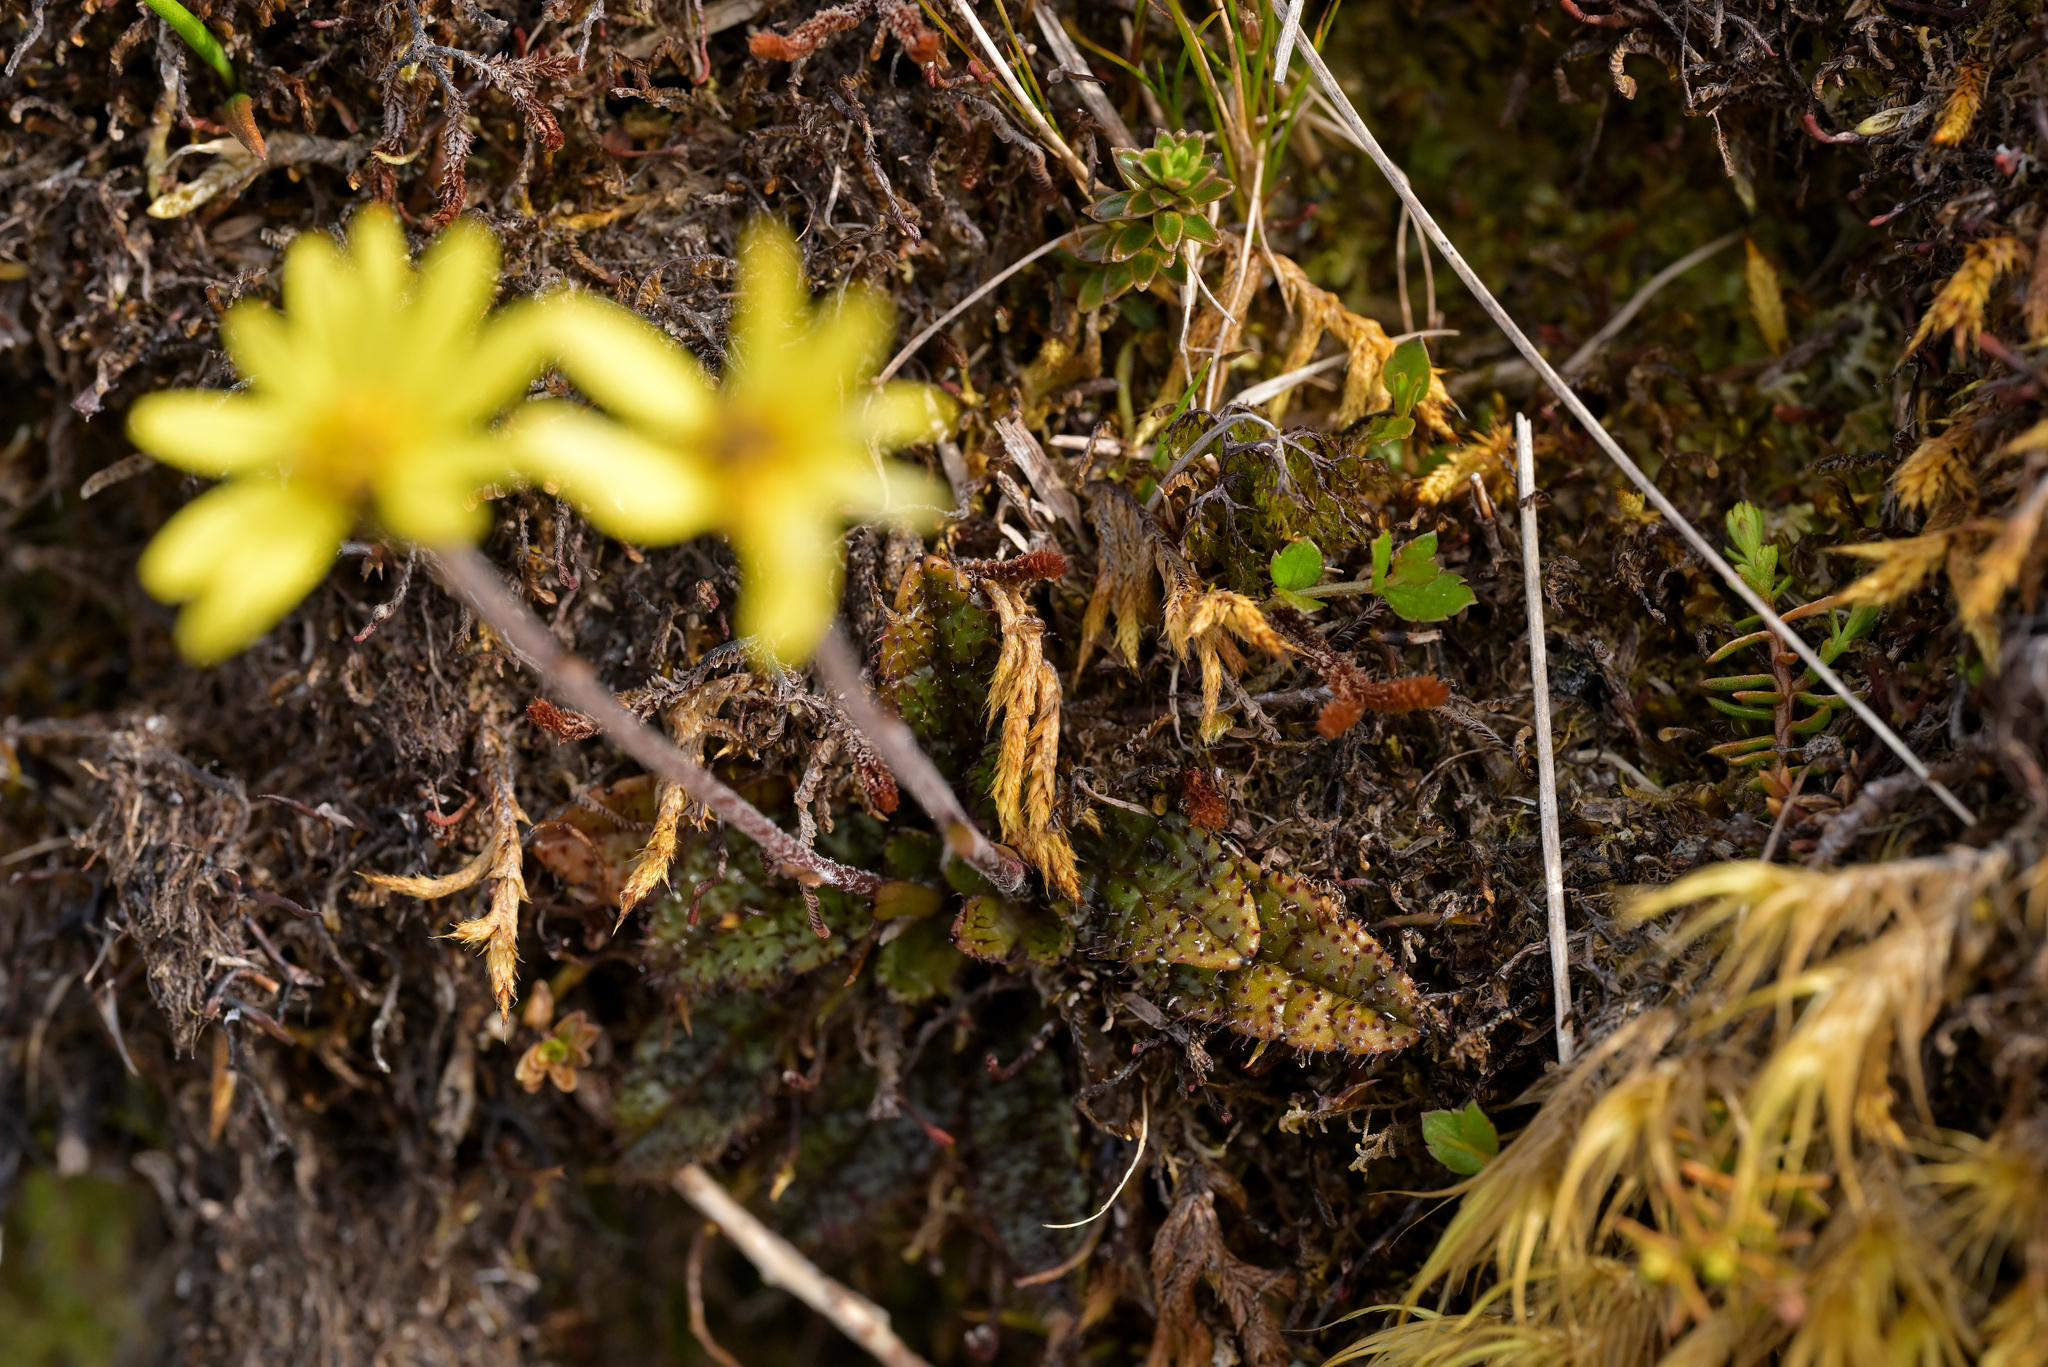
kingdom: Plantae
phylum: Tracheophyta
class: Magnoliopsida
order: Asterales
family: Asteraceae
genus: Brachyglottis
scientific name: Brachyglottis bellidioides
